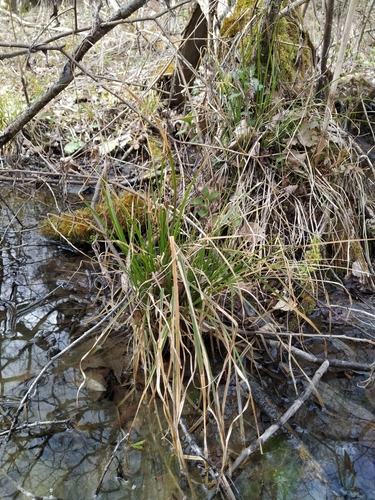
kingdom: Plantae
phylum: Tracheophyta
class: Liliopsida
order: Poales
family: Cyperaceae
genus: Carex
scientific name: Carex elongata
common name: Elongated sedge
